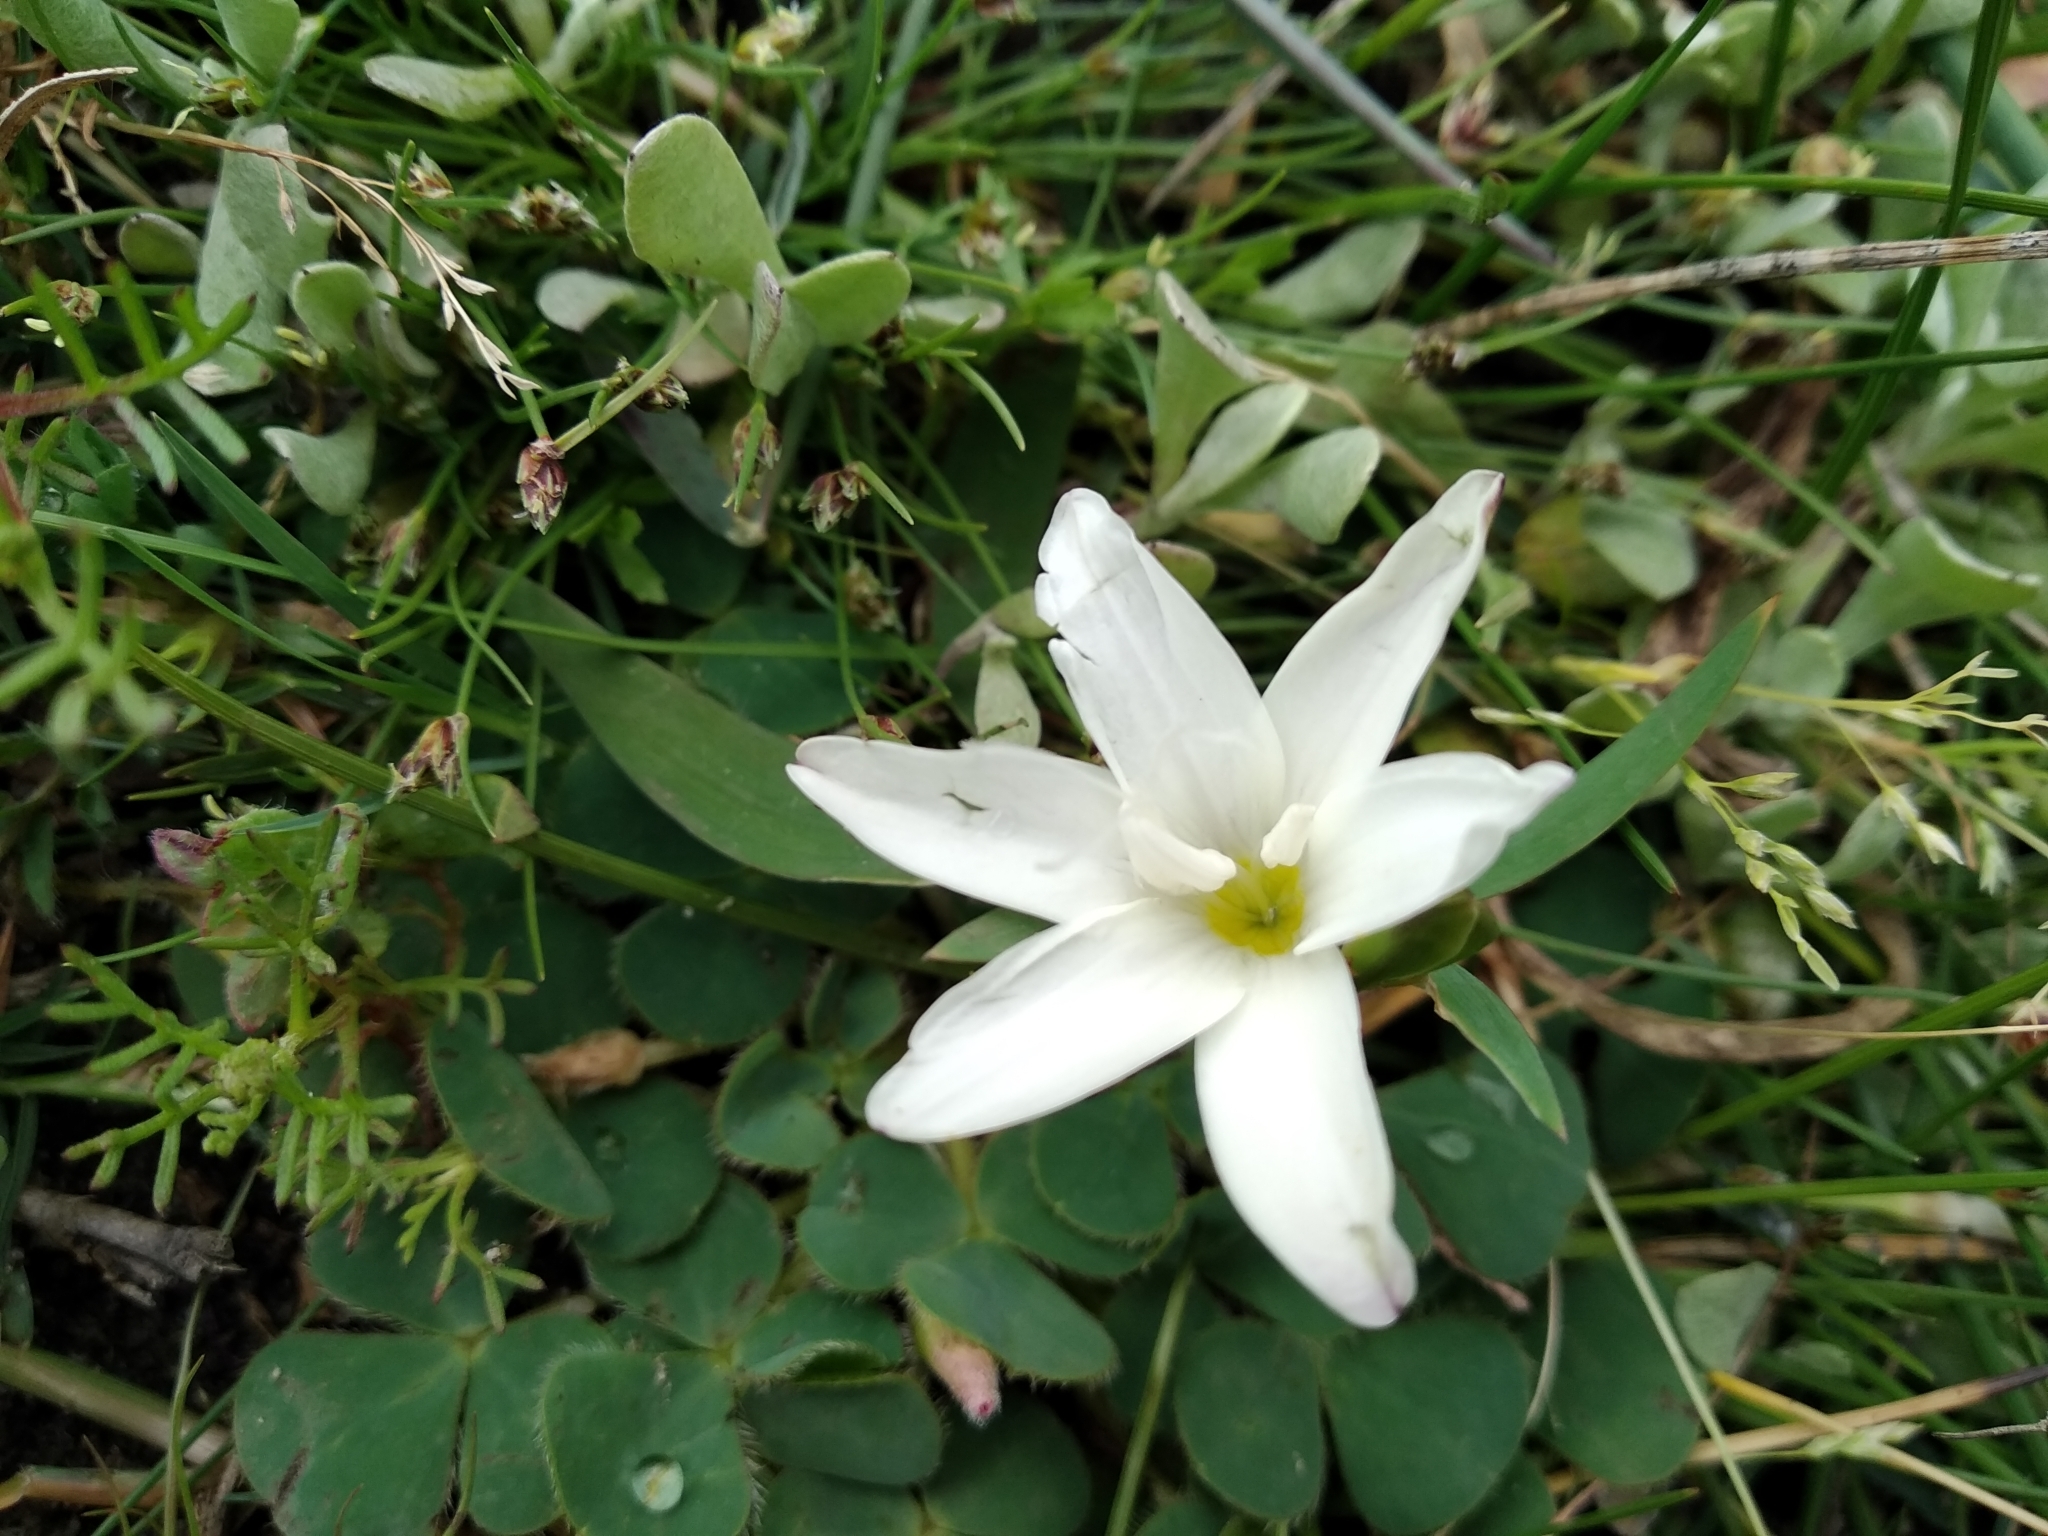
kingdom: Plantae
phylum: Tracheophyta
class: Liliopsida
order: Asparagales
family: Iridaceae
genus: Sparaxis
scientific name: Sparaxis bulbifera
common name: Harlequin-flower
